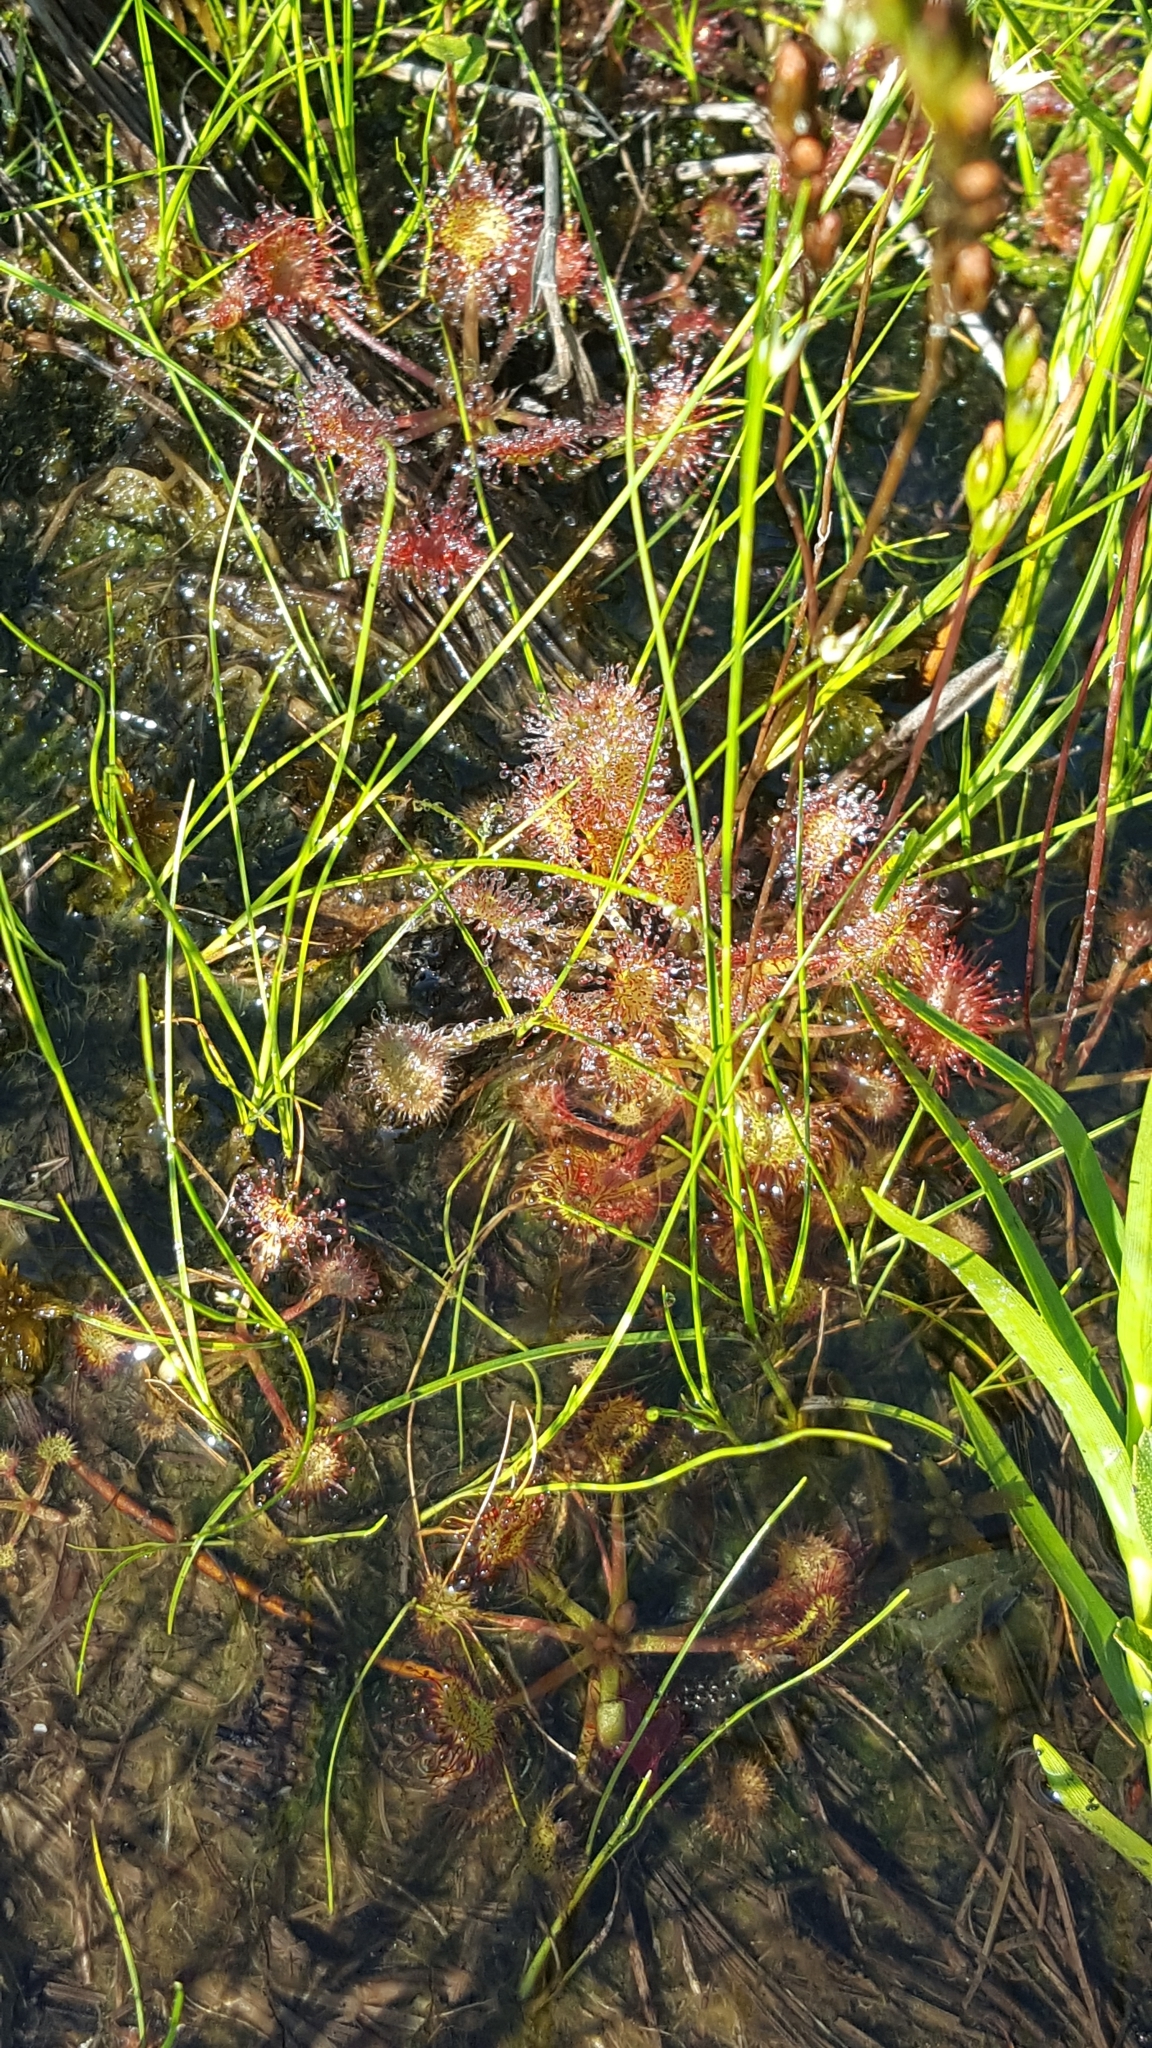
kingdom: Plantae
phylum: Tracheophyta
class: Magnoliopsida
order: Caryophyllales
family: Droseraceae
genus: Drosera
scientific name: Drosera rotundifolia
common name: Round-leaved sundew
